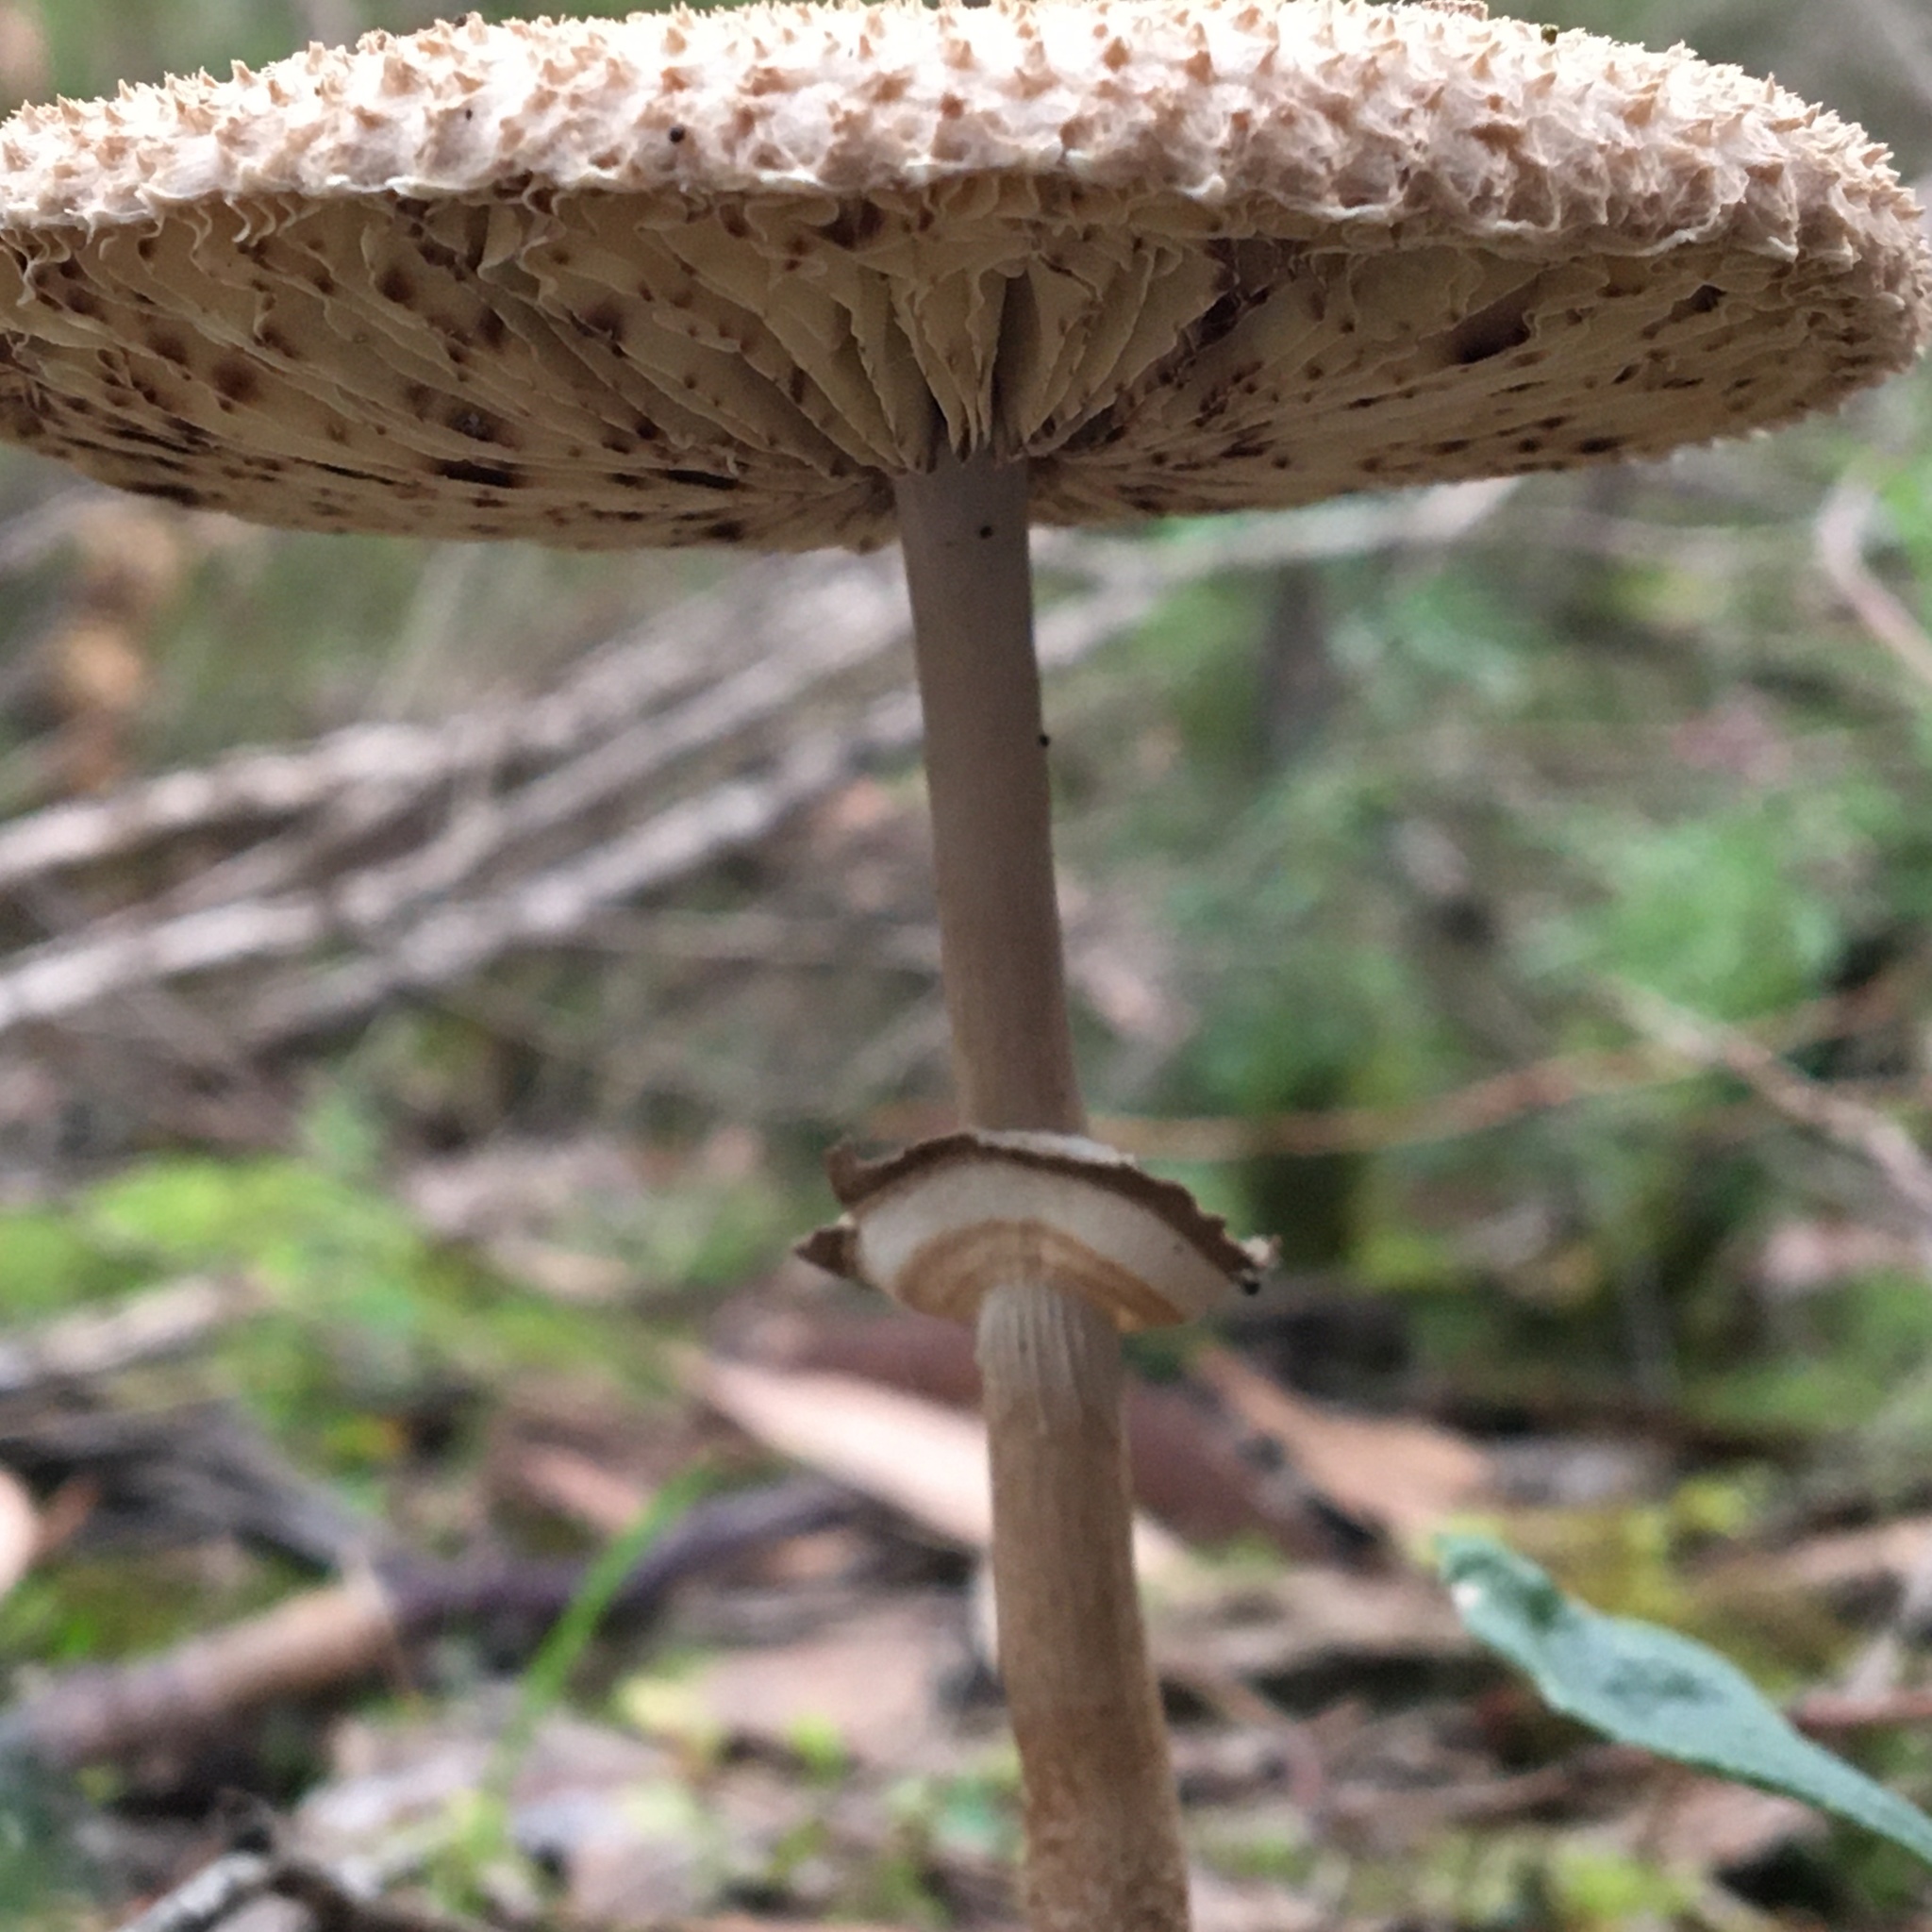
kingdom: Fungi
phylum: Basidiomycota
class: Agaricomycetes
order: Agaricales
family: Agaricaceae
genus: Macrolepiota
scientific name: Macrolepiota clelandii
